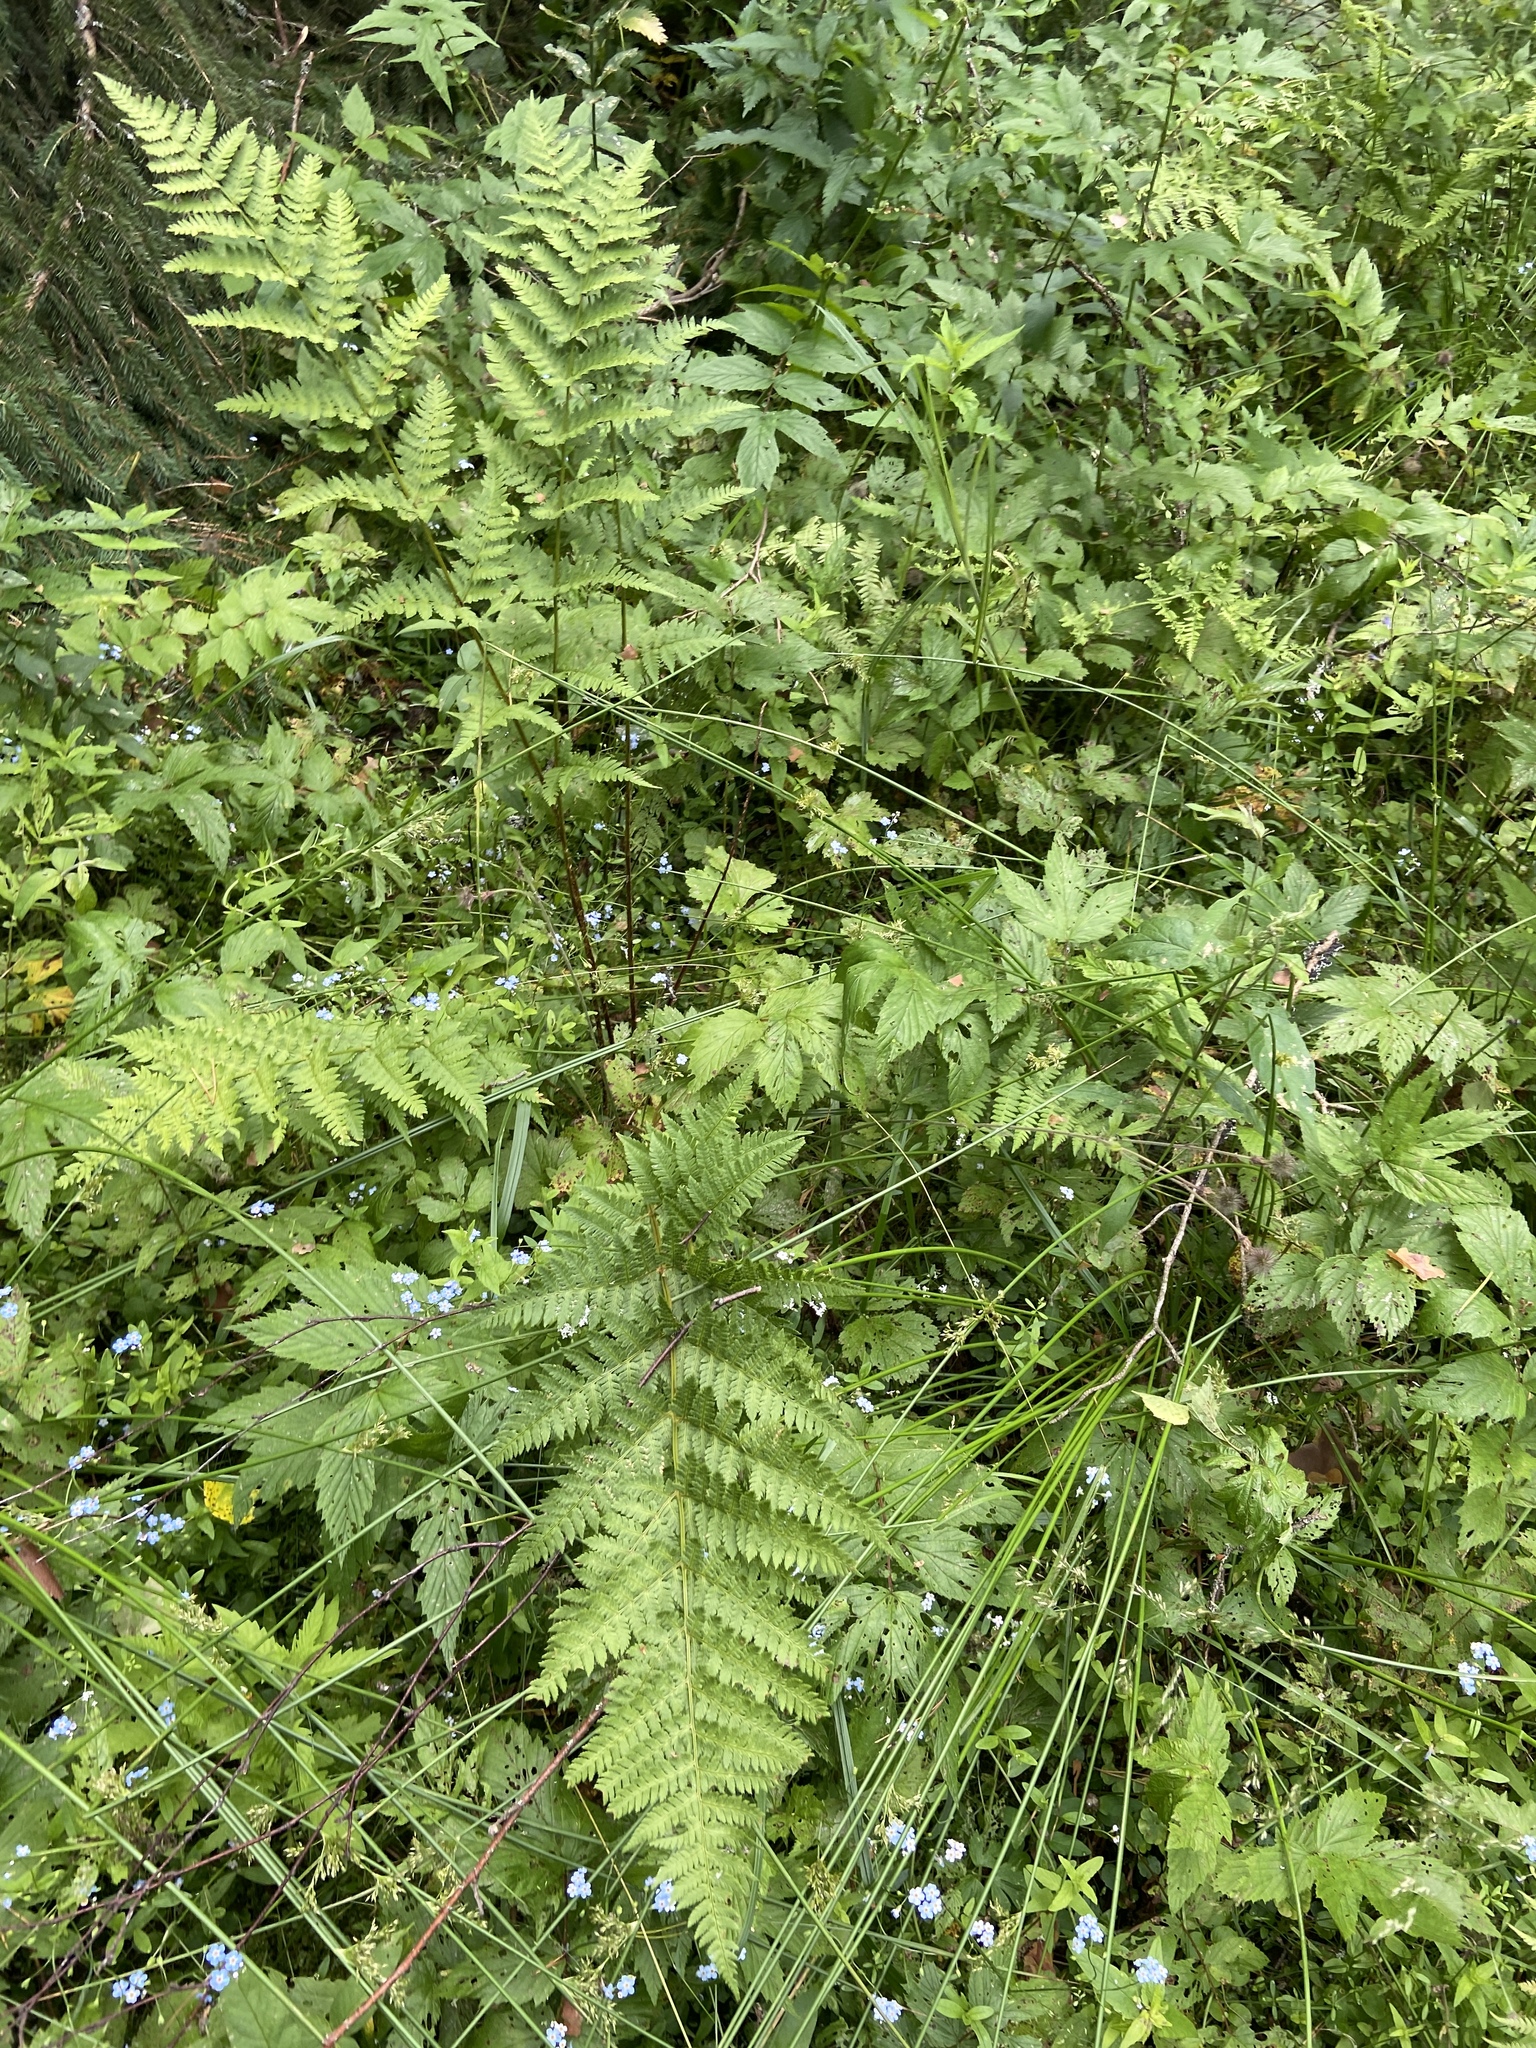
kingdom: Plantae
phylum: Tracheophyta
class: Polypodiopsida
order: Polypodiales
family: Dryopteridaceae
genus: Dryopteris
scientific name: Dryopteris carthusiana
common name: Narrow buckler-fern
